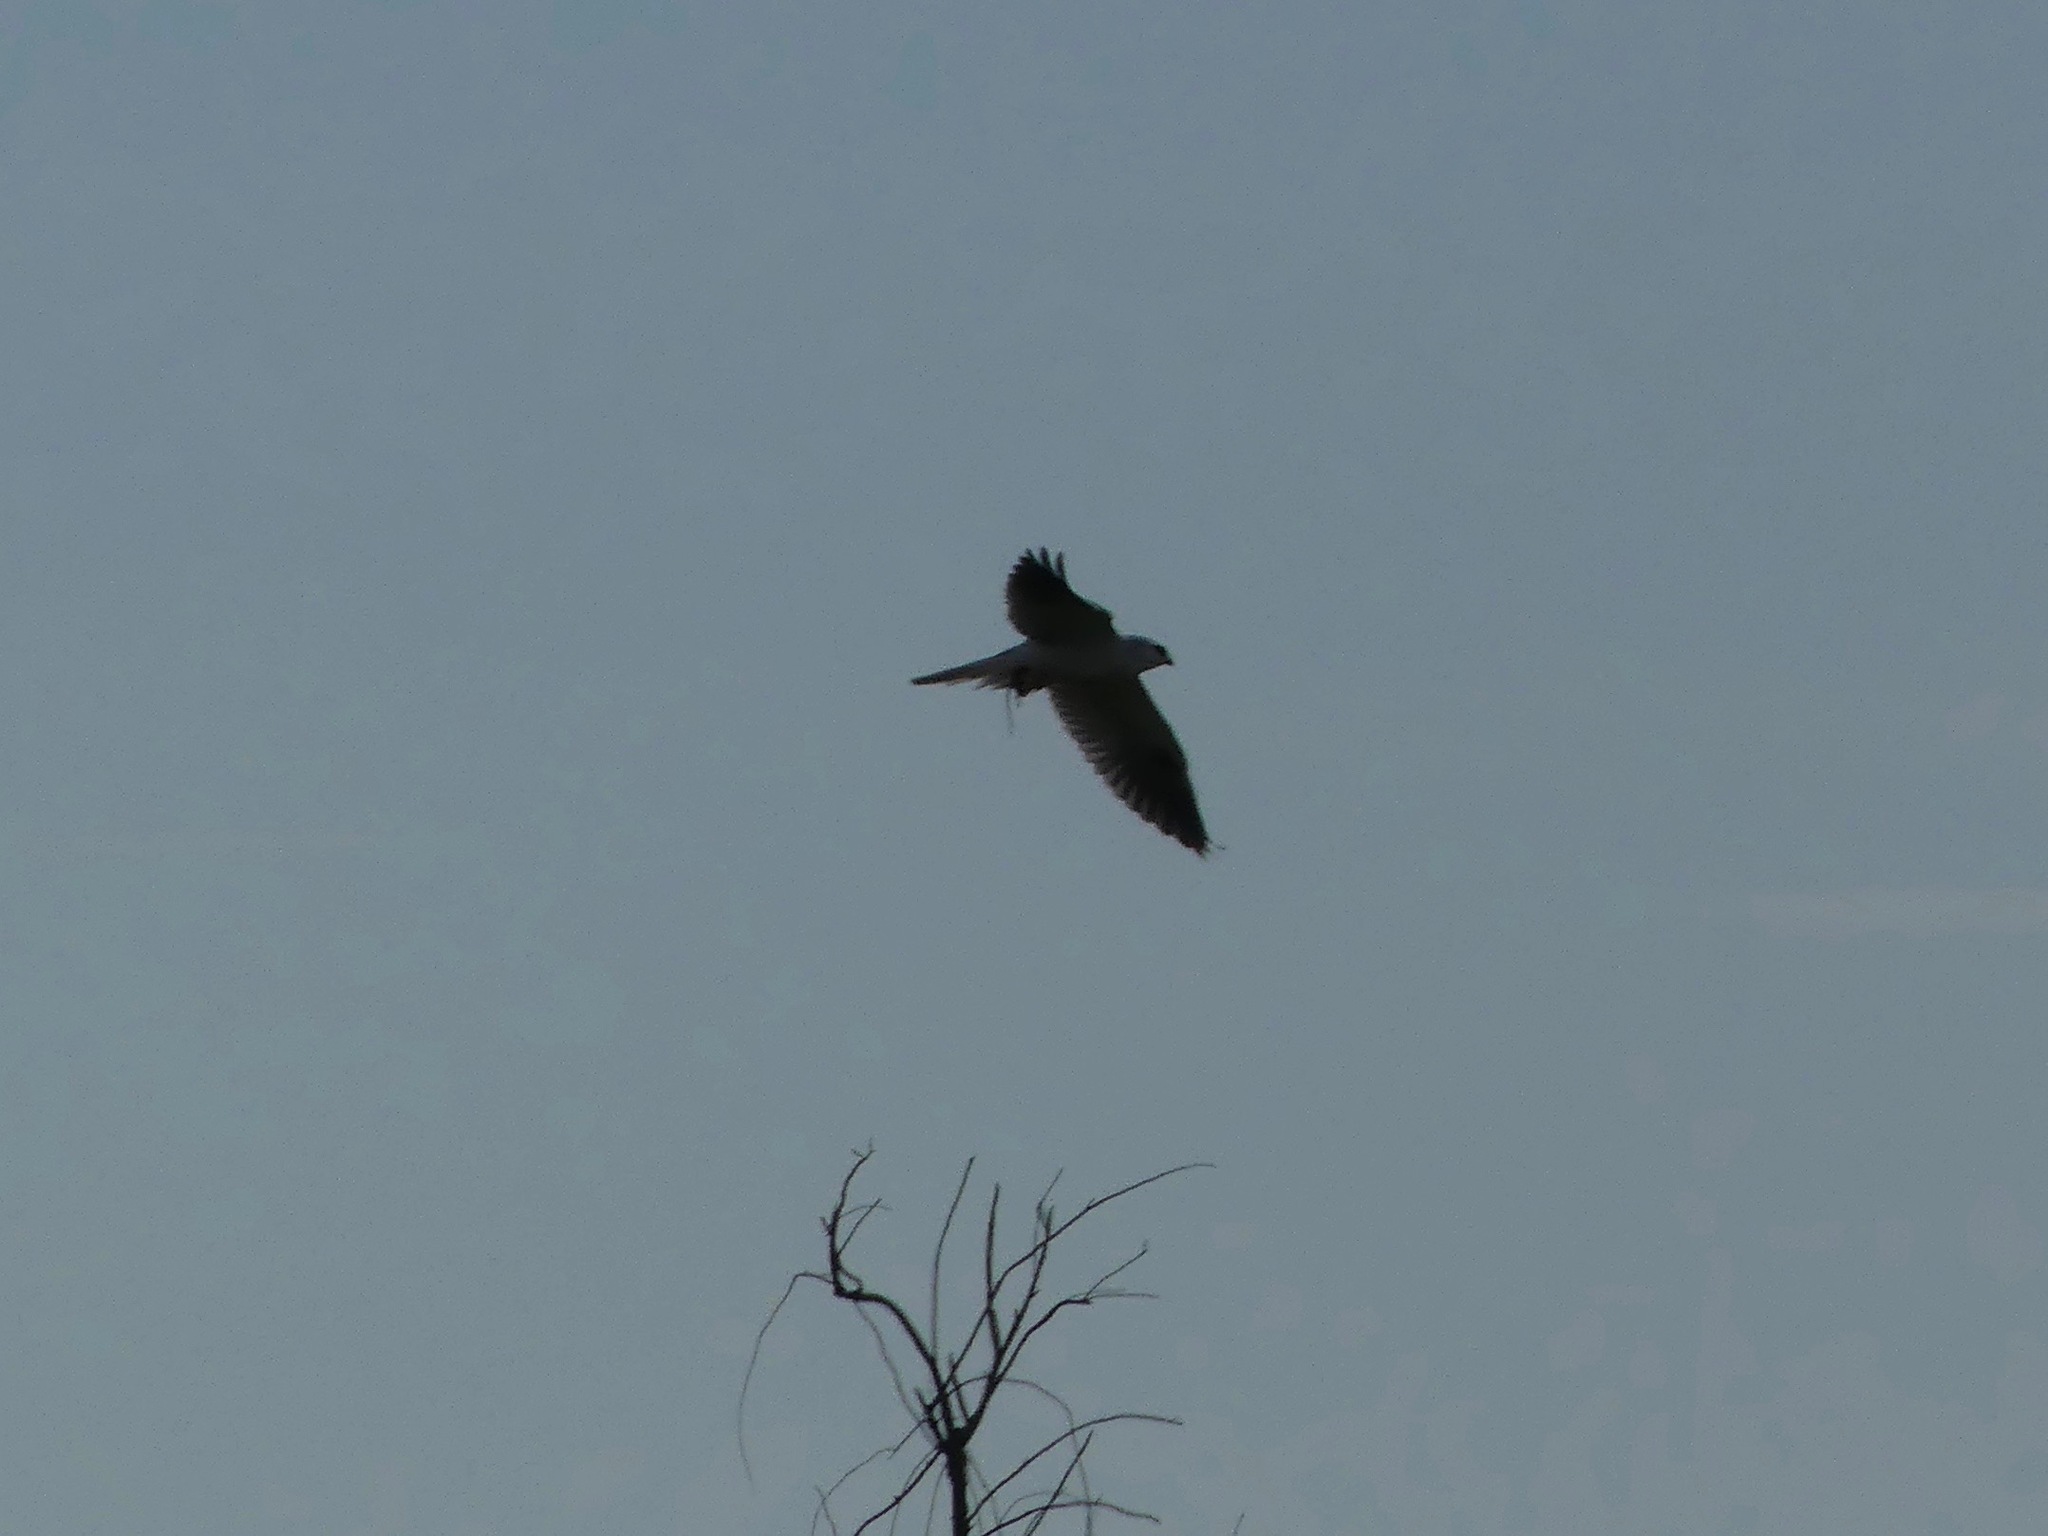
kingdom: Animalia
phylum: Chordata
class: Aves
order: Accipitriformes
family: Accipitridae
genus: Elanus
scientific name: Elanus leucurus
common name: White-tailed kite
